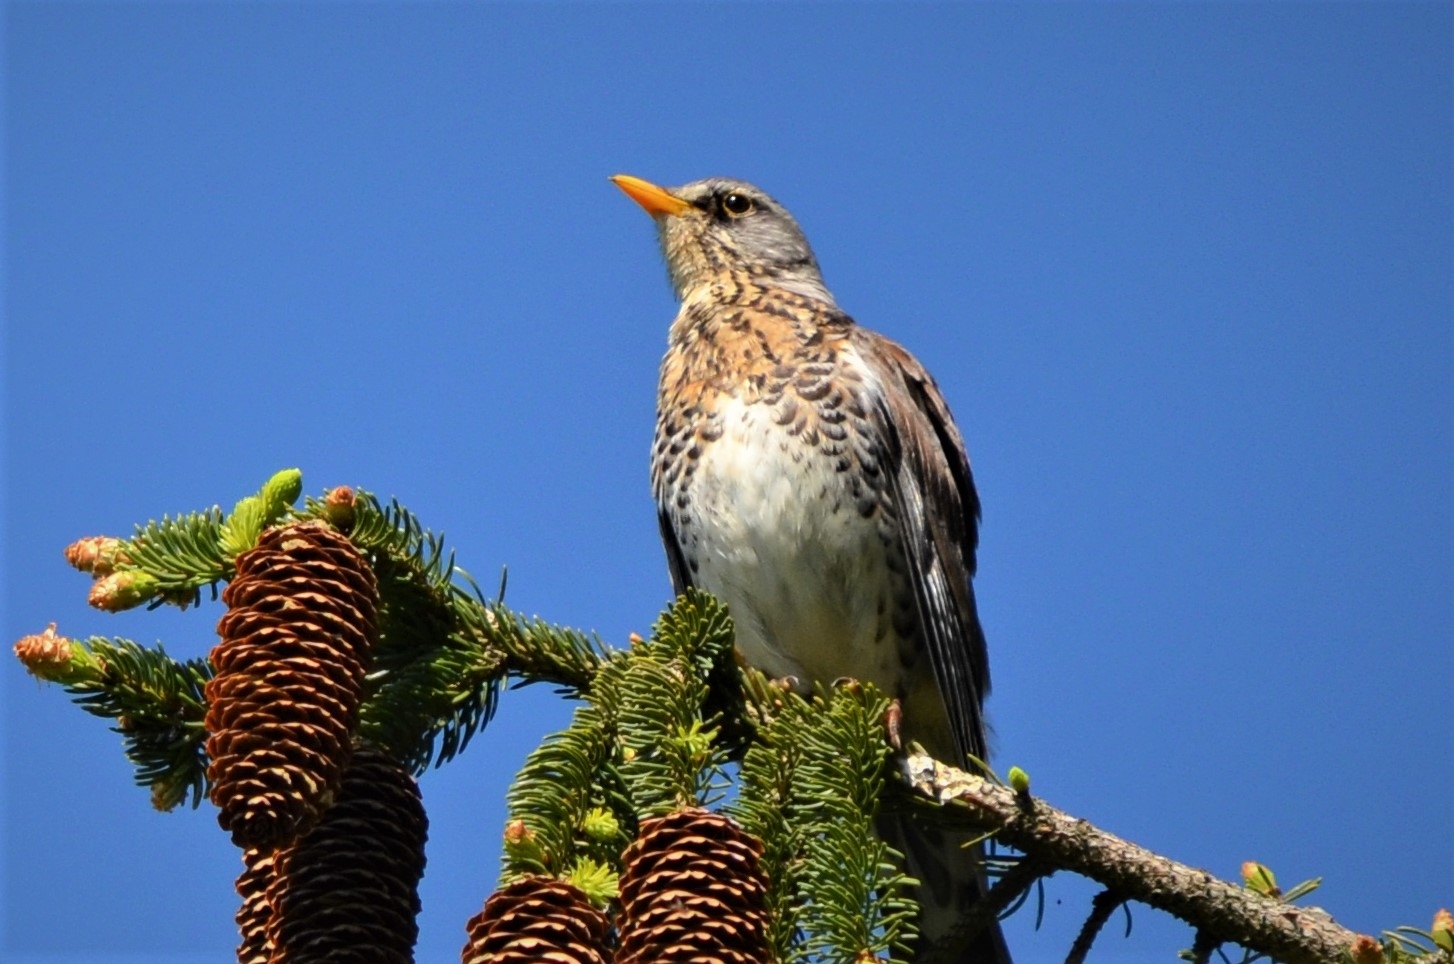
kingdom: Animalia
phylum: Chordata
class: Aves
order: Passeriformes
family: Turdidae
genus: Turdus
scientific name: Turdus pilaris
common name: Fieldfare
